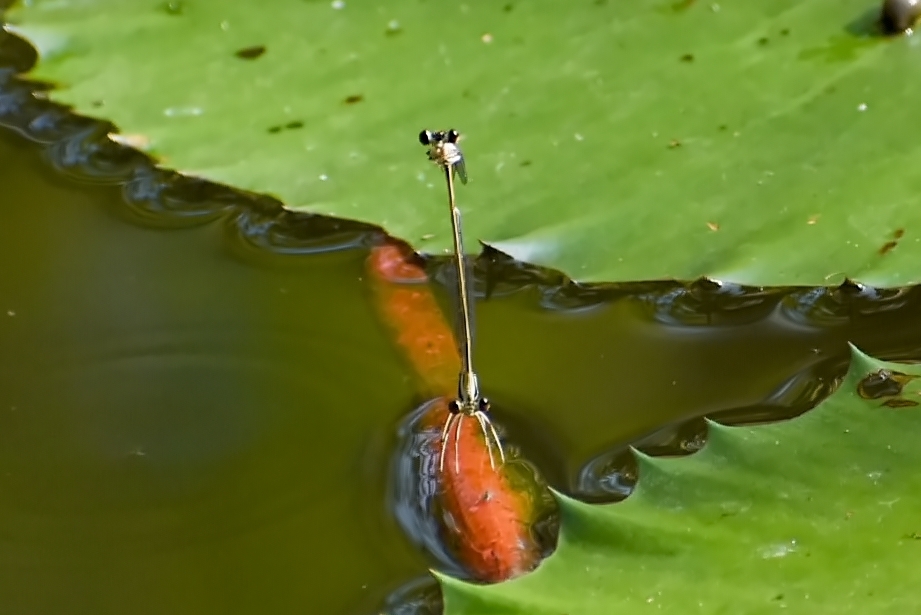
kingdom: Animalia
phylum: Arthropoda
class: Insecta
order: Odonata
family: Platycnemididae
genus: Pseudocopera
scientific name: Pseudocopera ciliata
